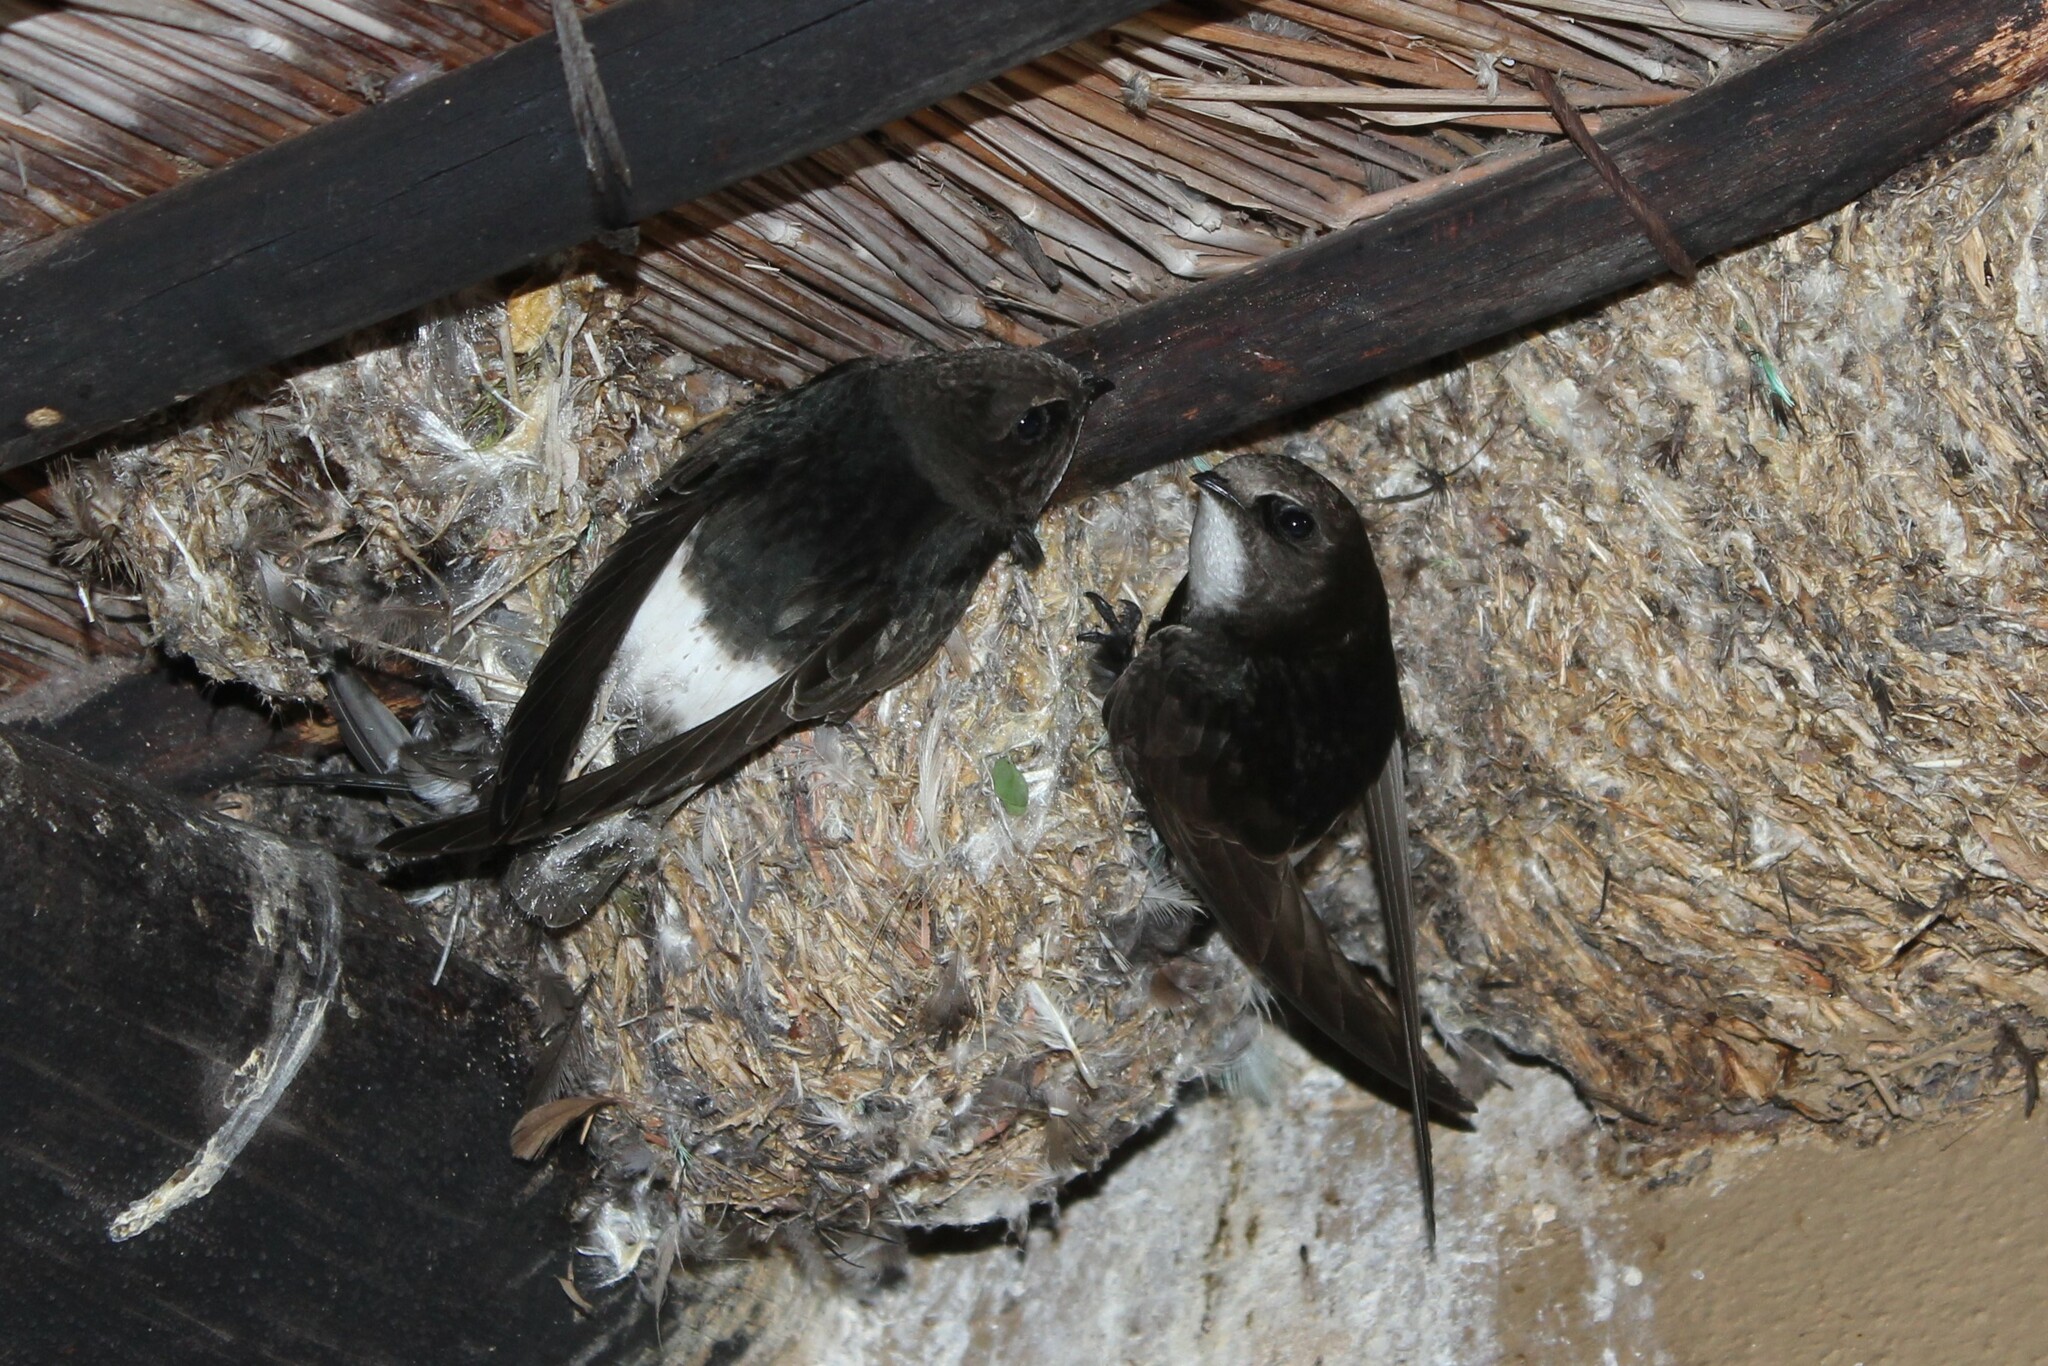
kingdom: Animalia
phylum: Chordata
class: Aves
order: Apodiformes
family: Apodidae
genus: Apus
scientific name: Apus affinis
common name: Little swift
